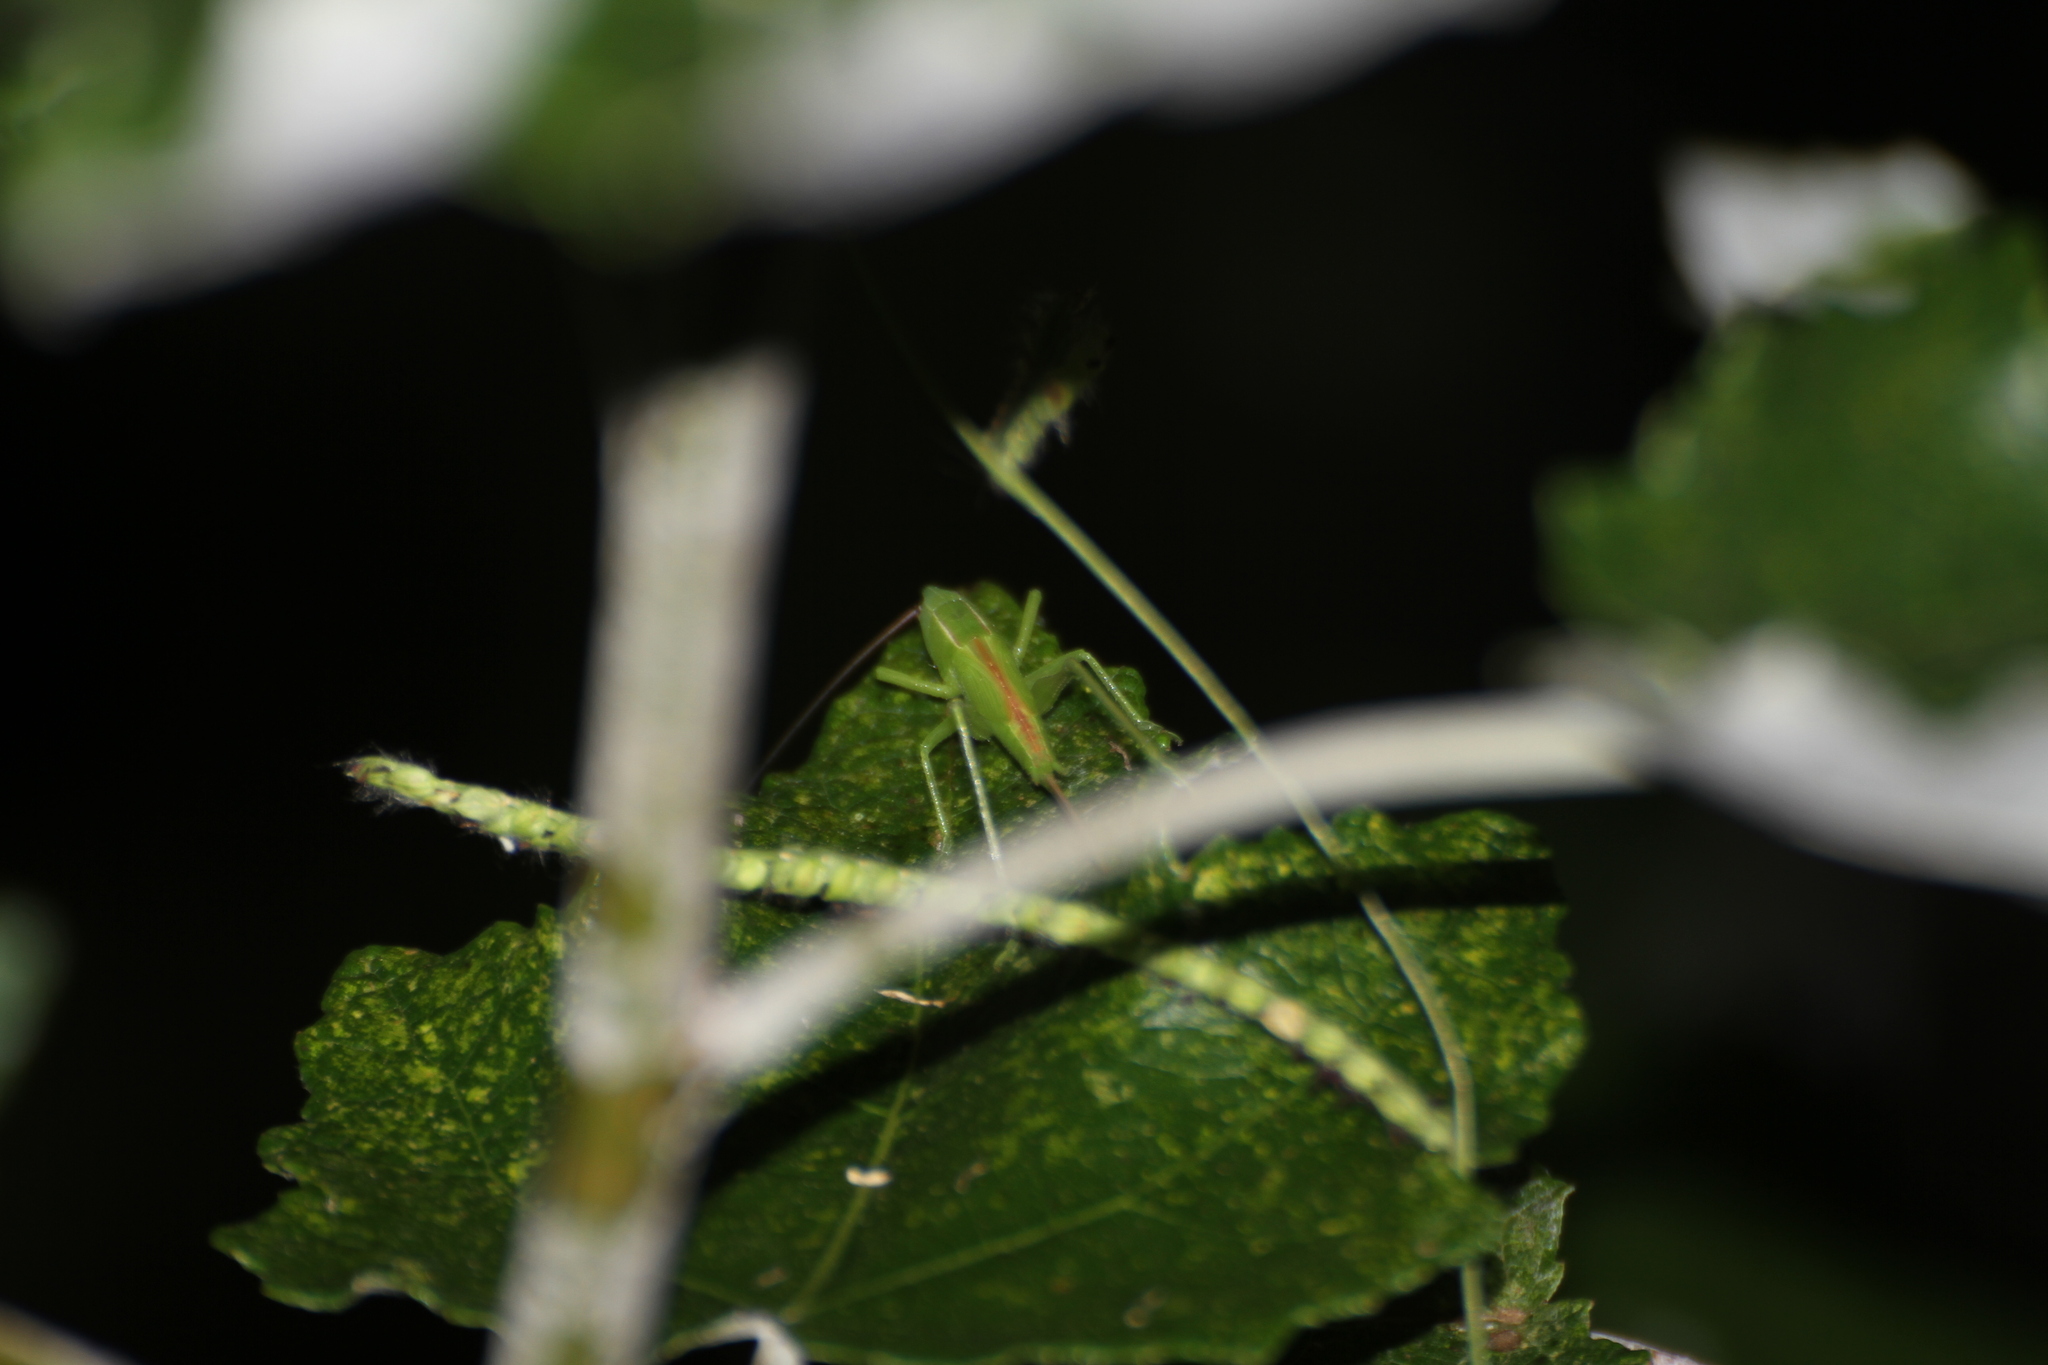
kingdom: Animalia
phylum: Arthropoda
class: Insecta
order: Orthoptera
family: Tettigoniidae
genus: Ruspolia
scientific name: Ruspolia nitidula
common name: Large conehead
